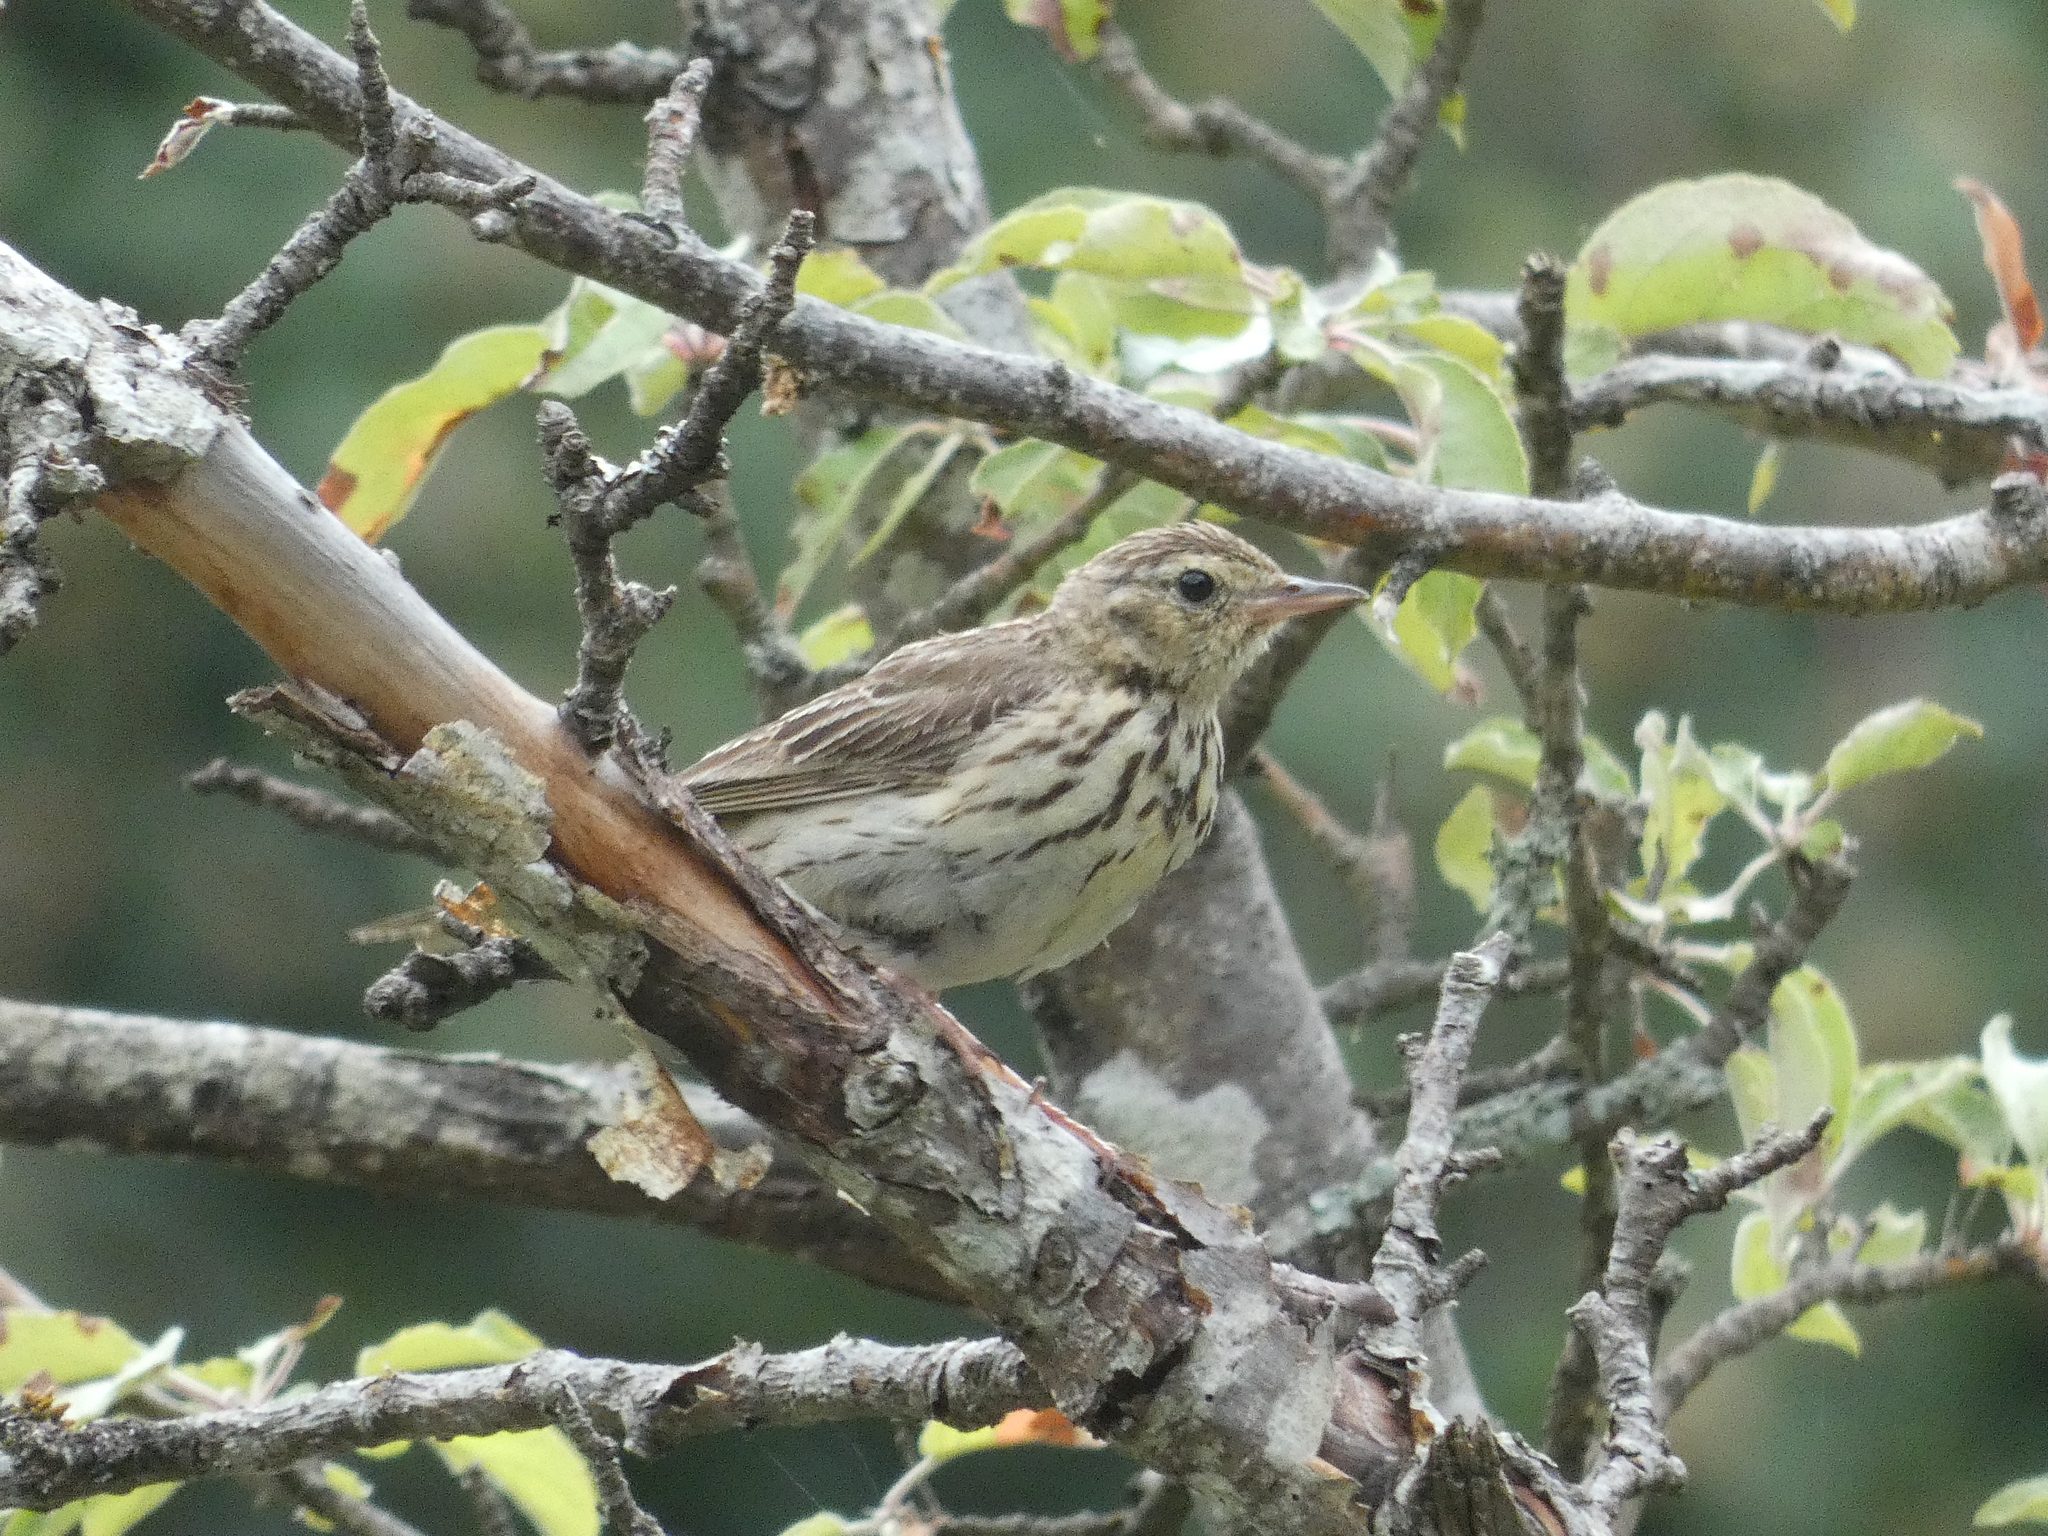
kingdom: Animalia
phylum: Chordata
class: Aves
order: Passeriformes
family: Motacillidae
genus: Anthus
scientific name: Anthus trivialis
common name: Tree pipit
